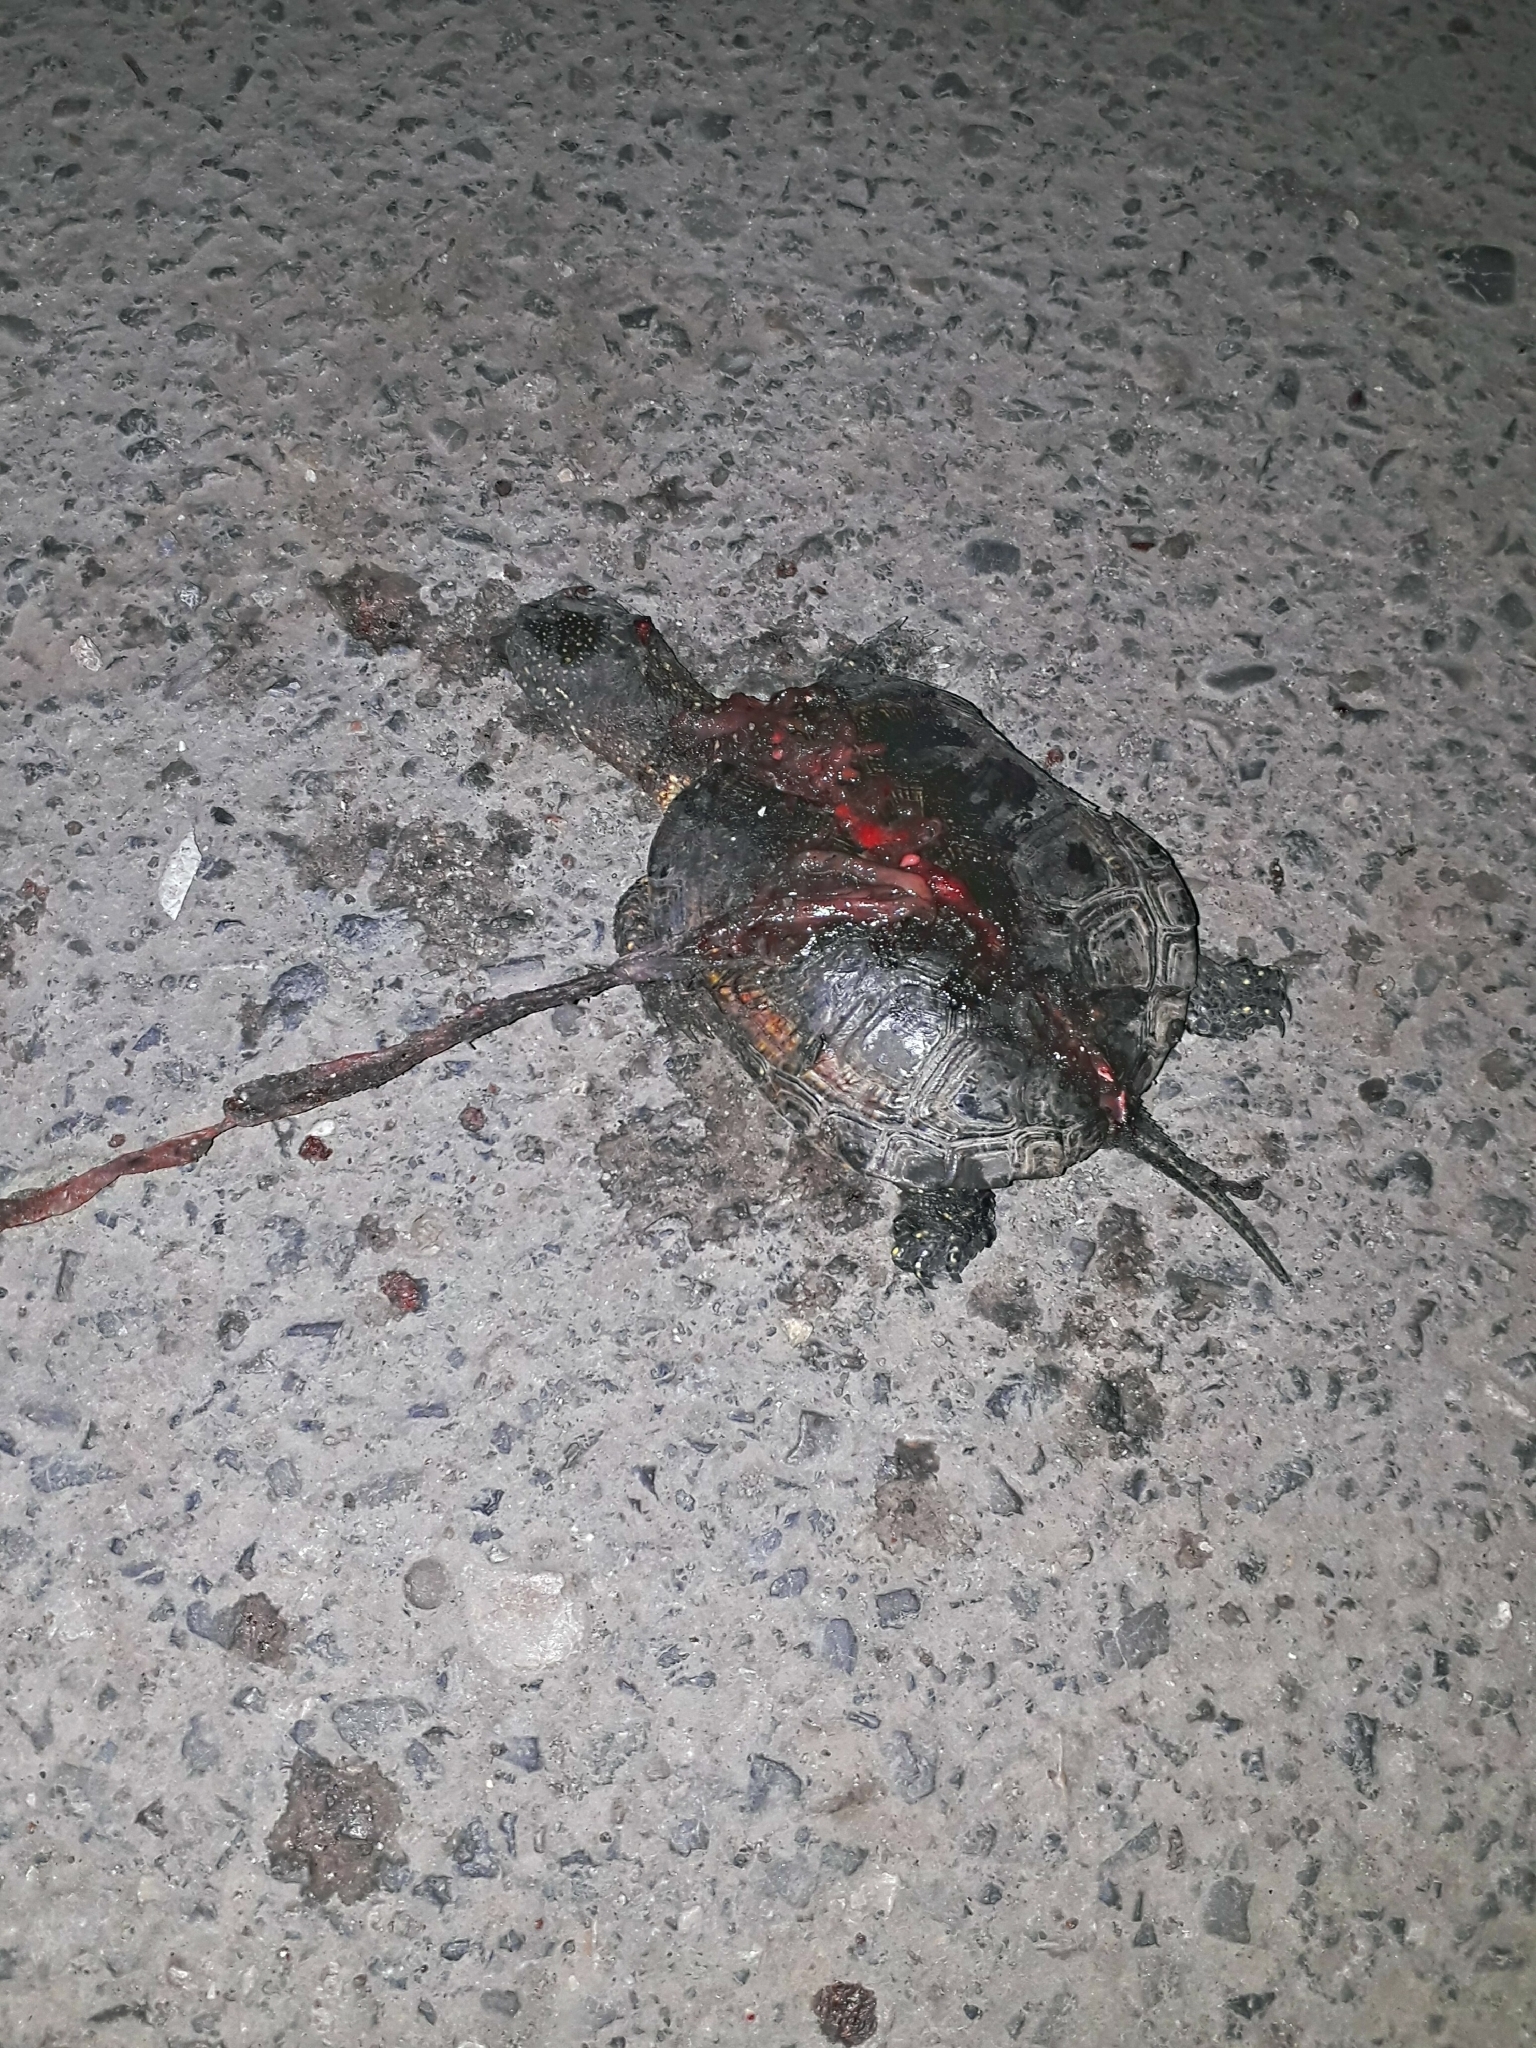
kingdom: Animalia
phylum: Chordata
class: Testudines
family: Emydidae
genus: Emys
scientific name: Emys orbicularis
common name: European pond turtle
